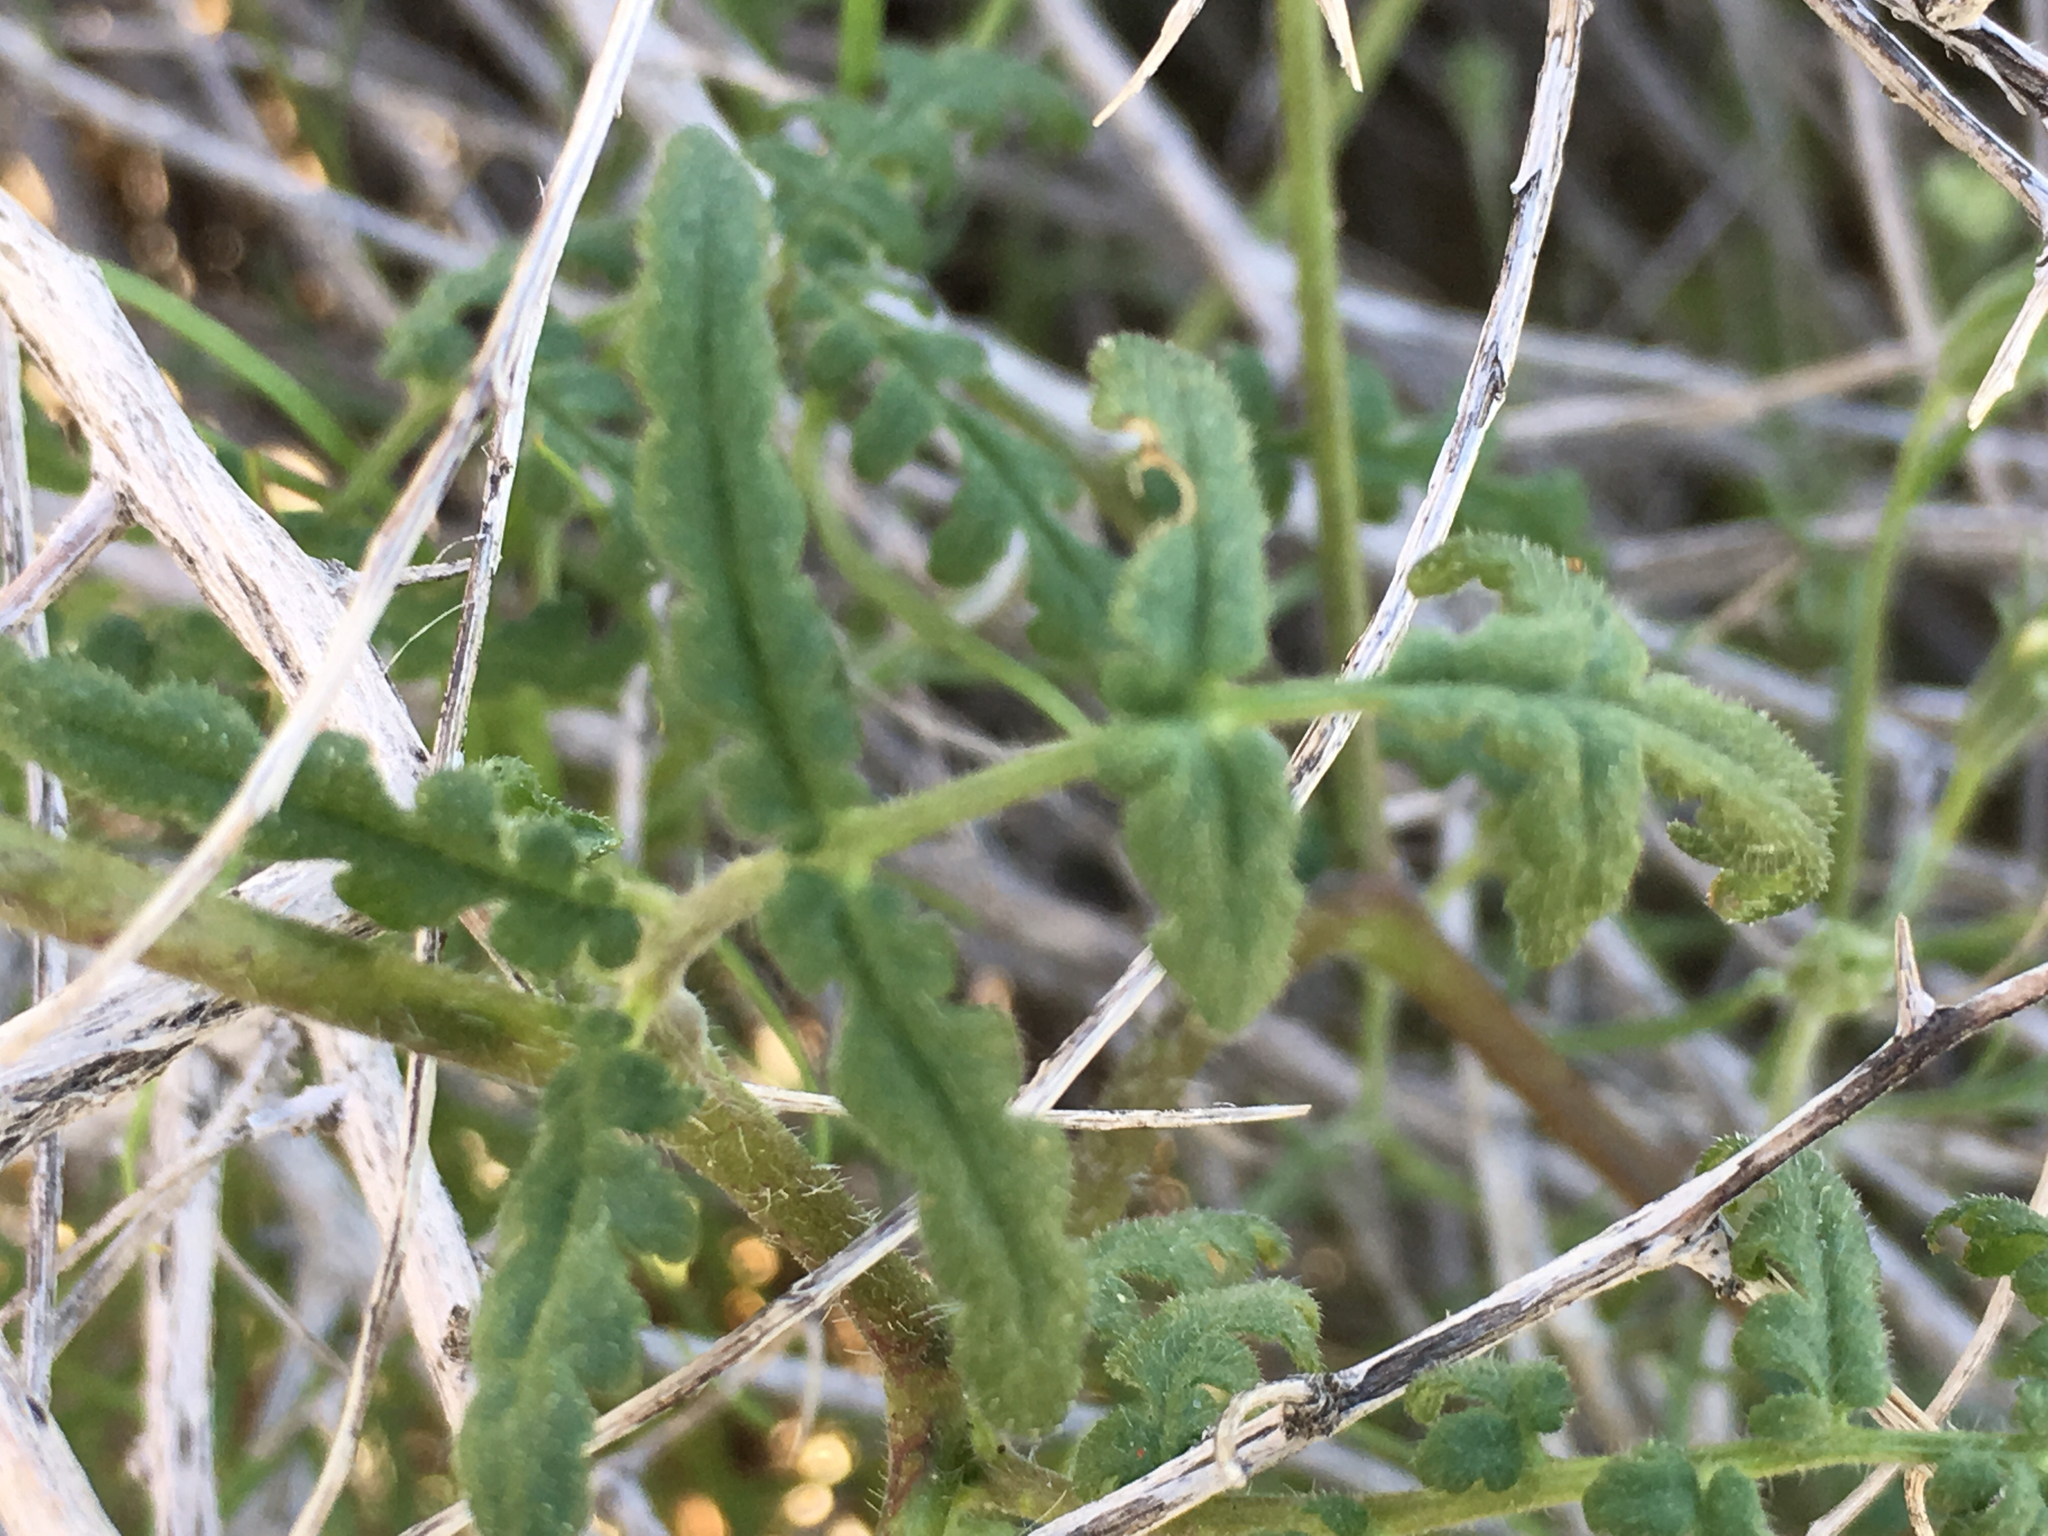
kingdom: Plantae
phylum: Tracheophyta
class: Magnoliopsida
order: Boraginales
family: Hydrophyllaceae
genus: Phacelia
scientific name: Phacelia distans
